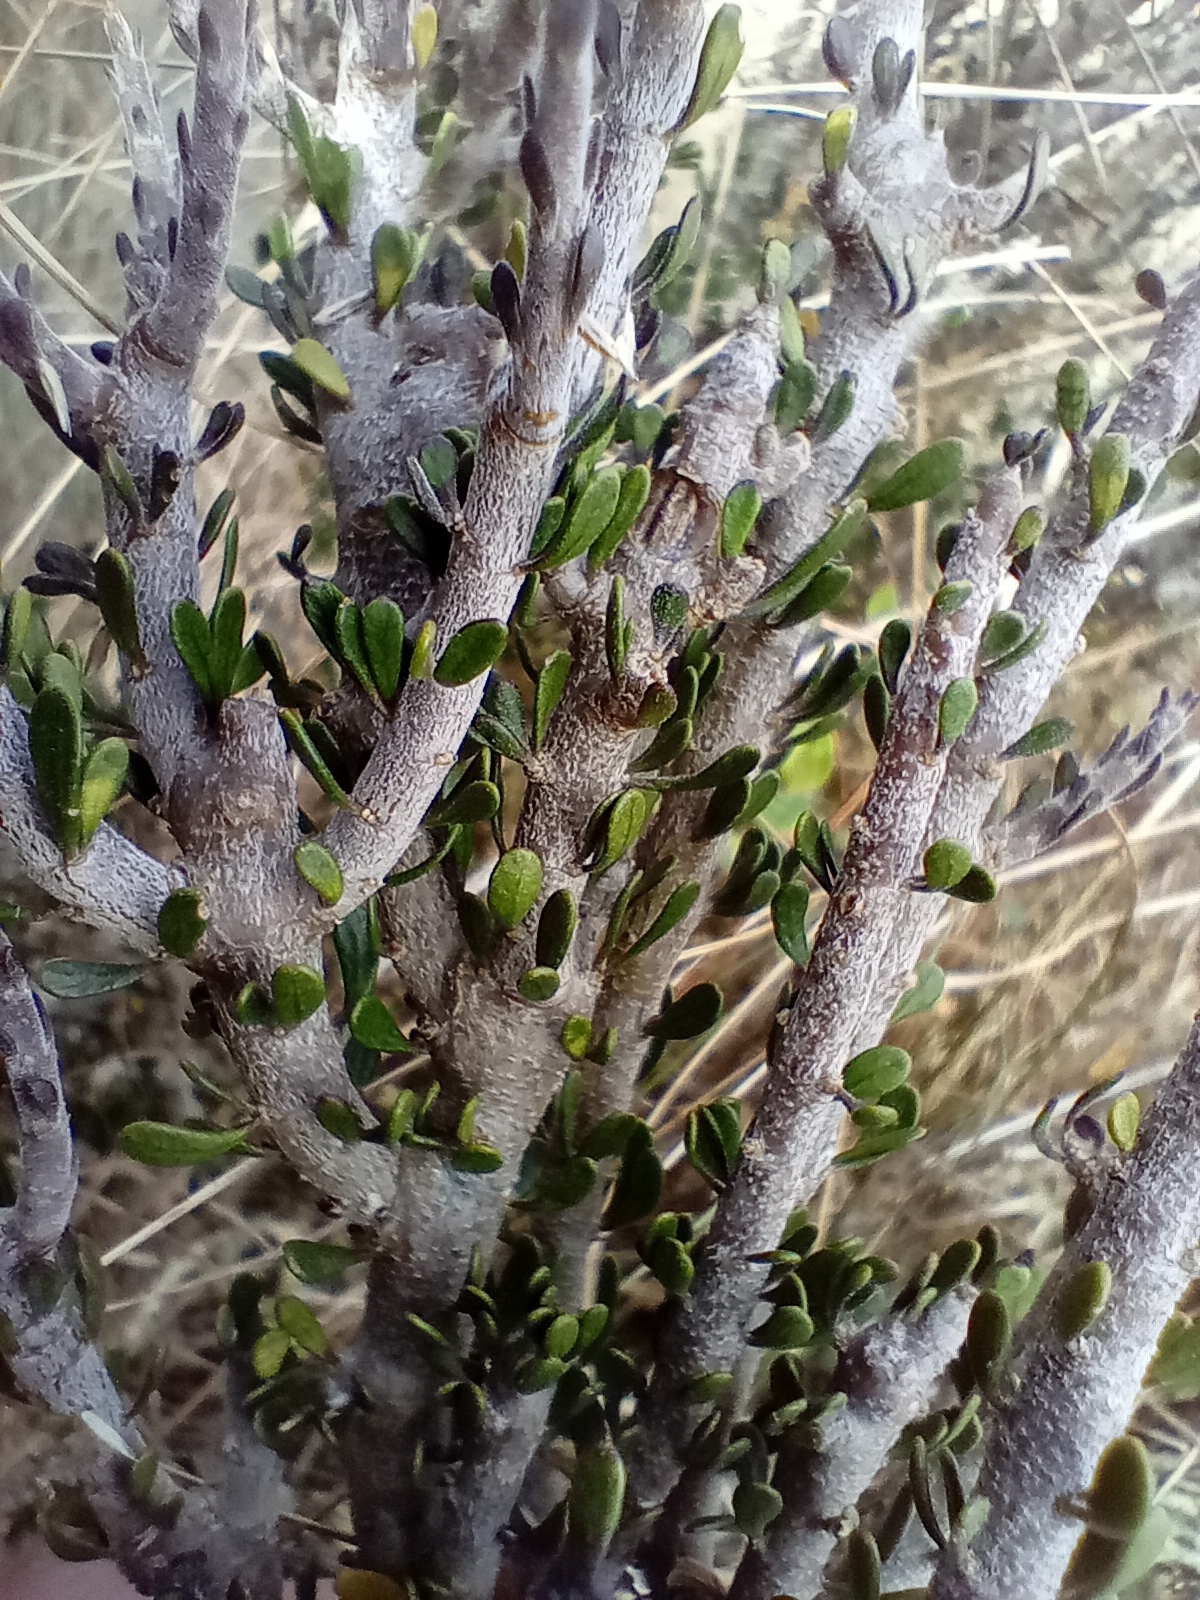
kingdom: Plantae
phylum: Tracheophyta
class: Magnoliopsida
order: Malpighiales
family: Violaceae
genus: Melicytus
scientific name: Melicytus alpinus
